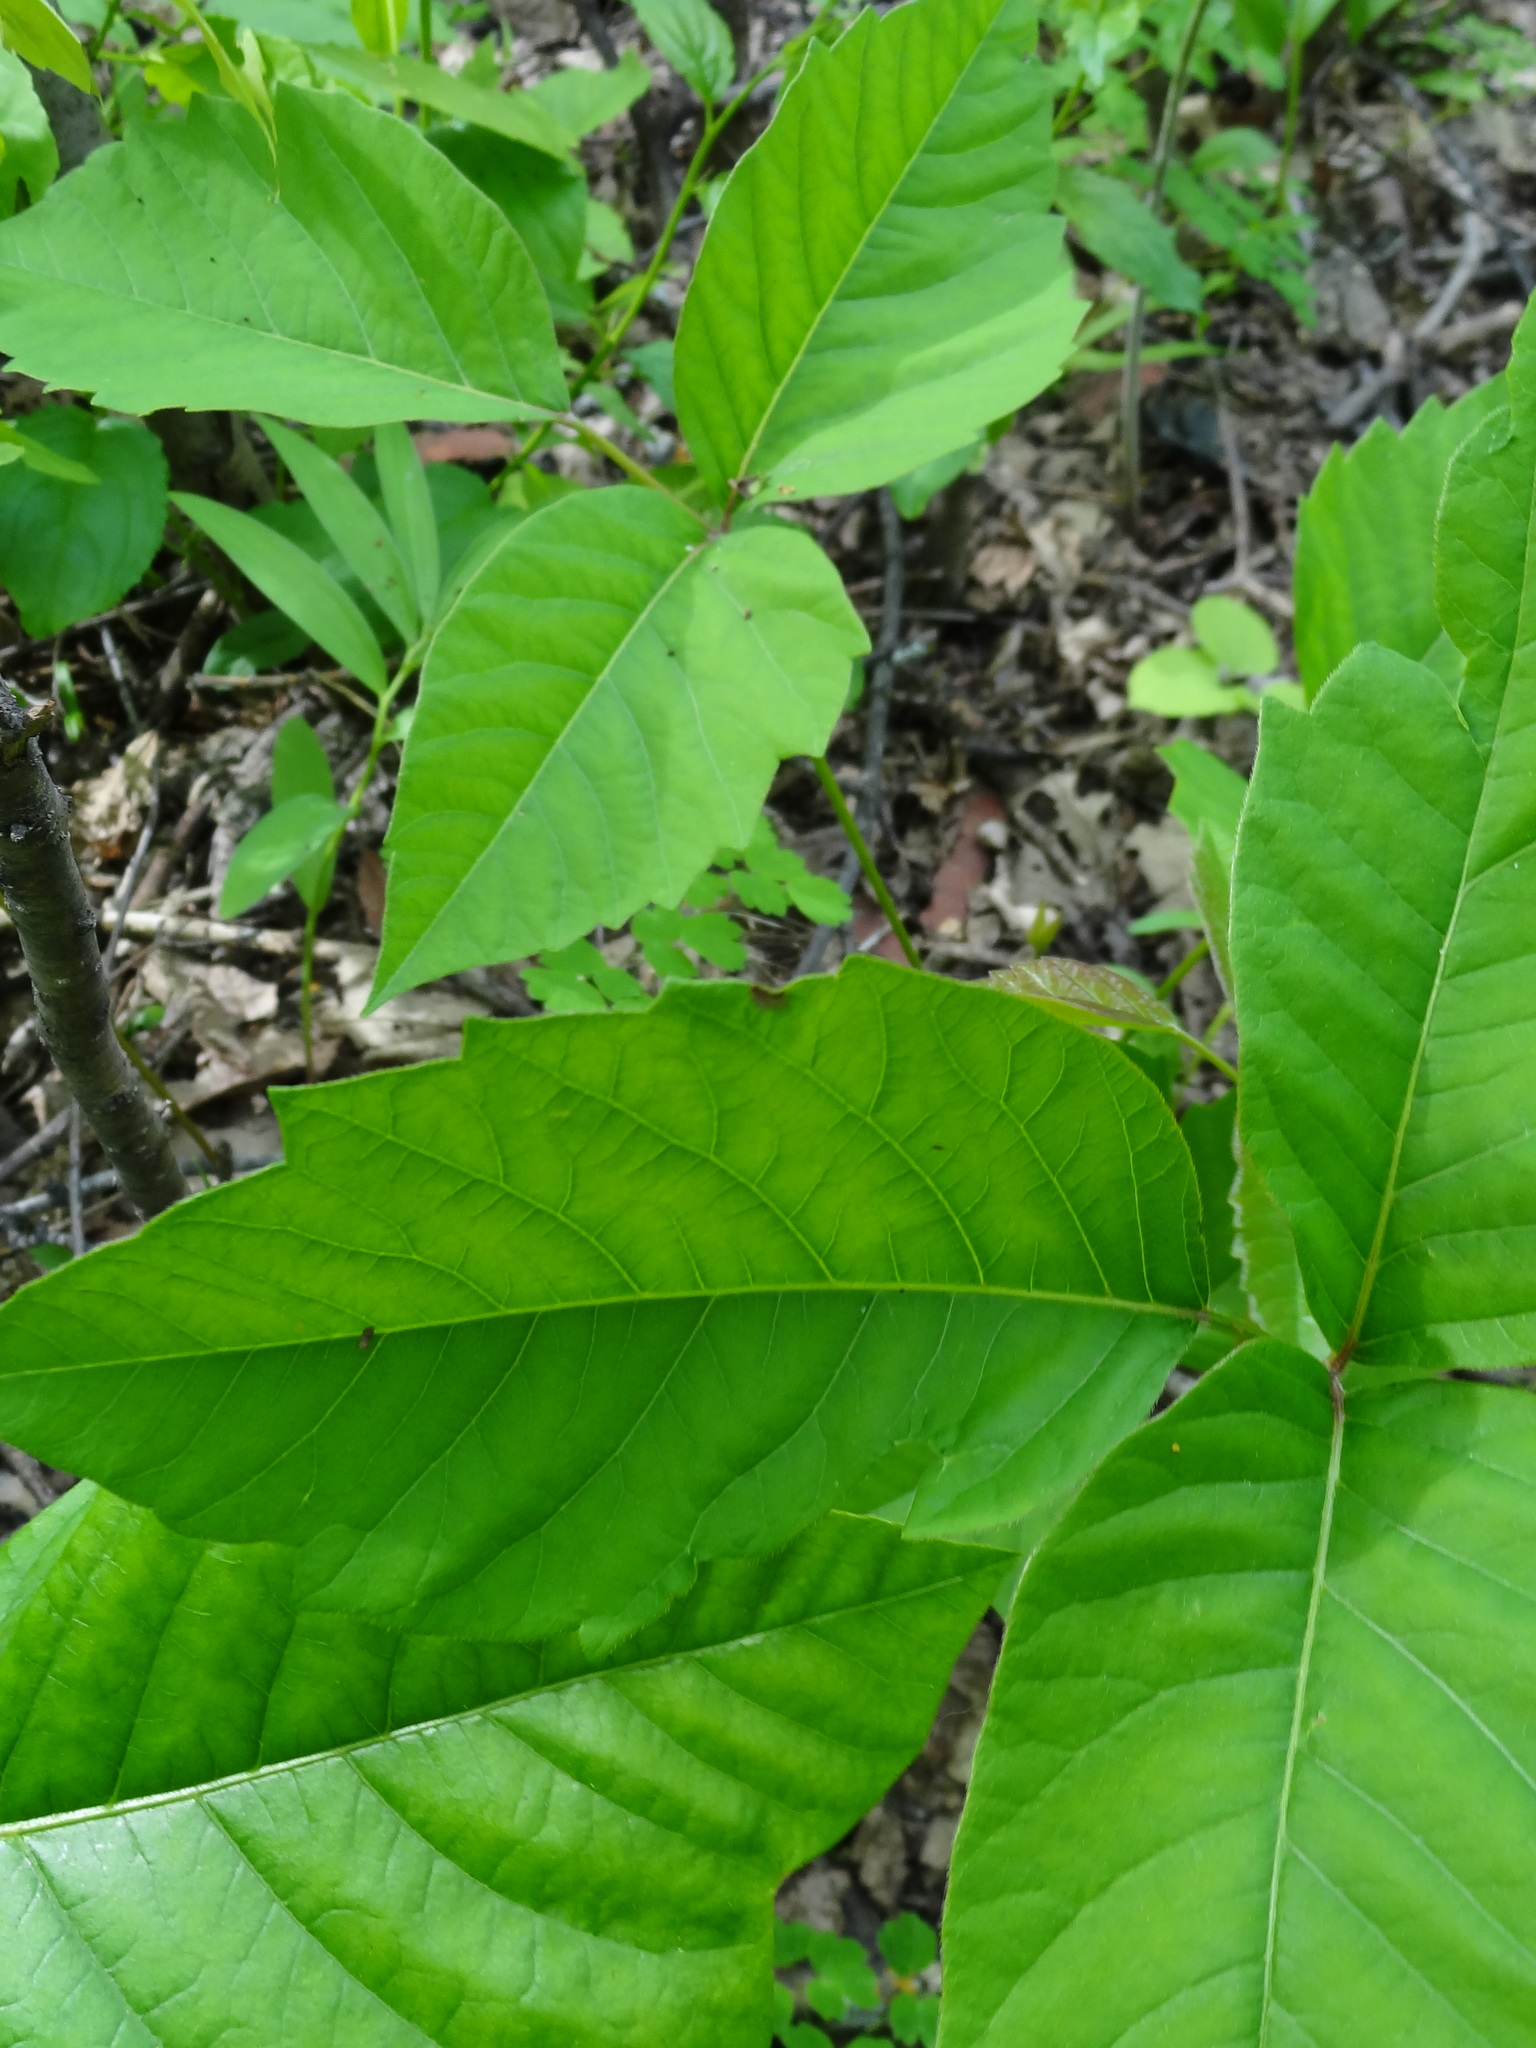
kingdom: Plantae
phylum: Tracheophyta
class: Magnoliopsida
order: Sapindales
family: Anacardiaceae
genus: Toxicodendron
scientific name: Toxicodendron rydbergii
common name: Rydberg's poison-ivy
